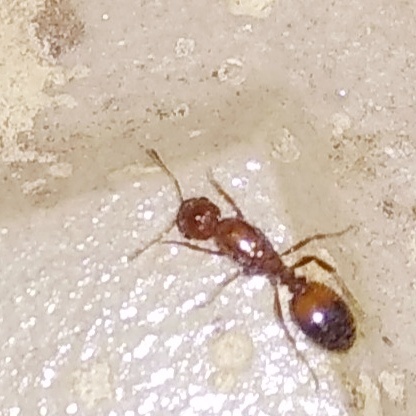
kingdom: Animalia
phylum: Arthropoda
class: Insecta
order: Hymenoptera
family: Formicidae
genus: Solenopsis
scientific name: Solenopsis geminata
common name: Tropical fire ant
